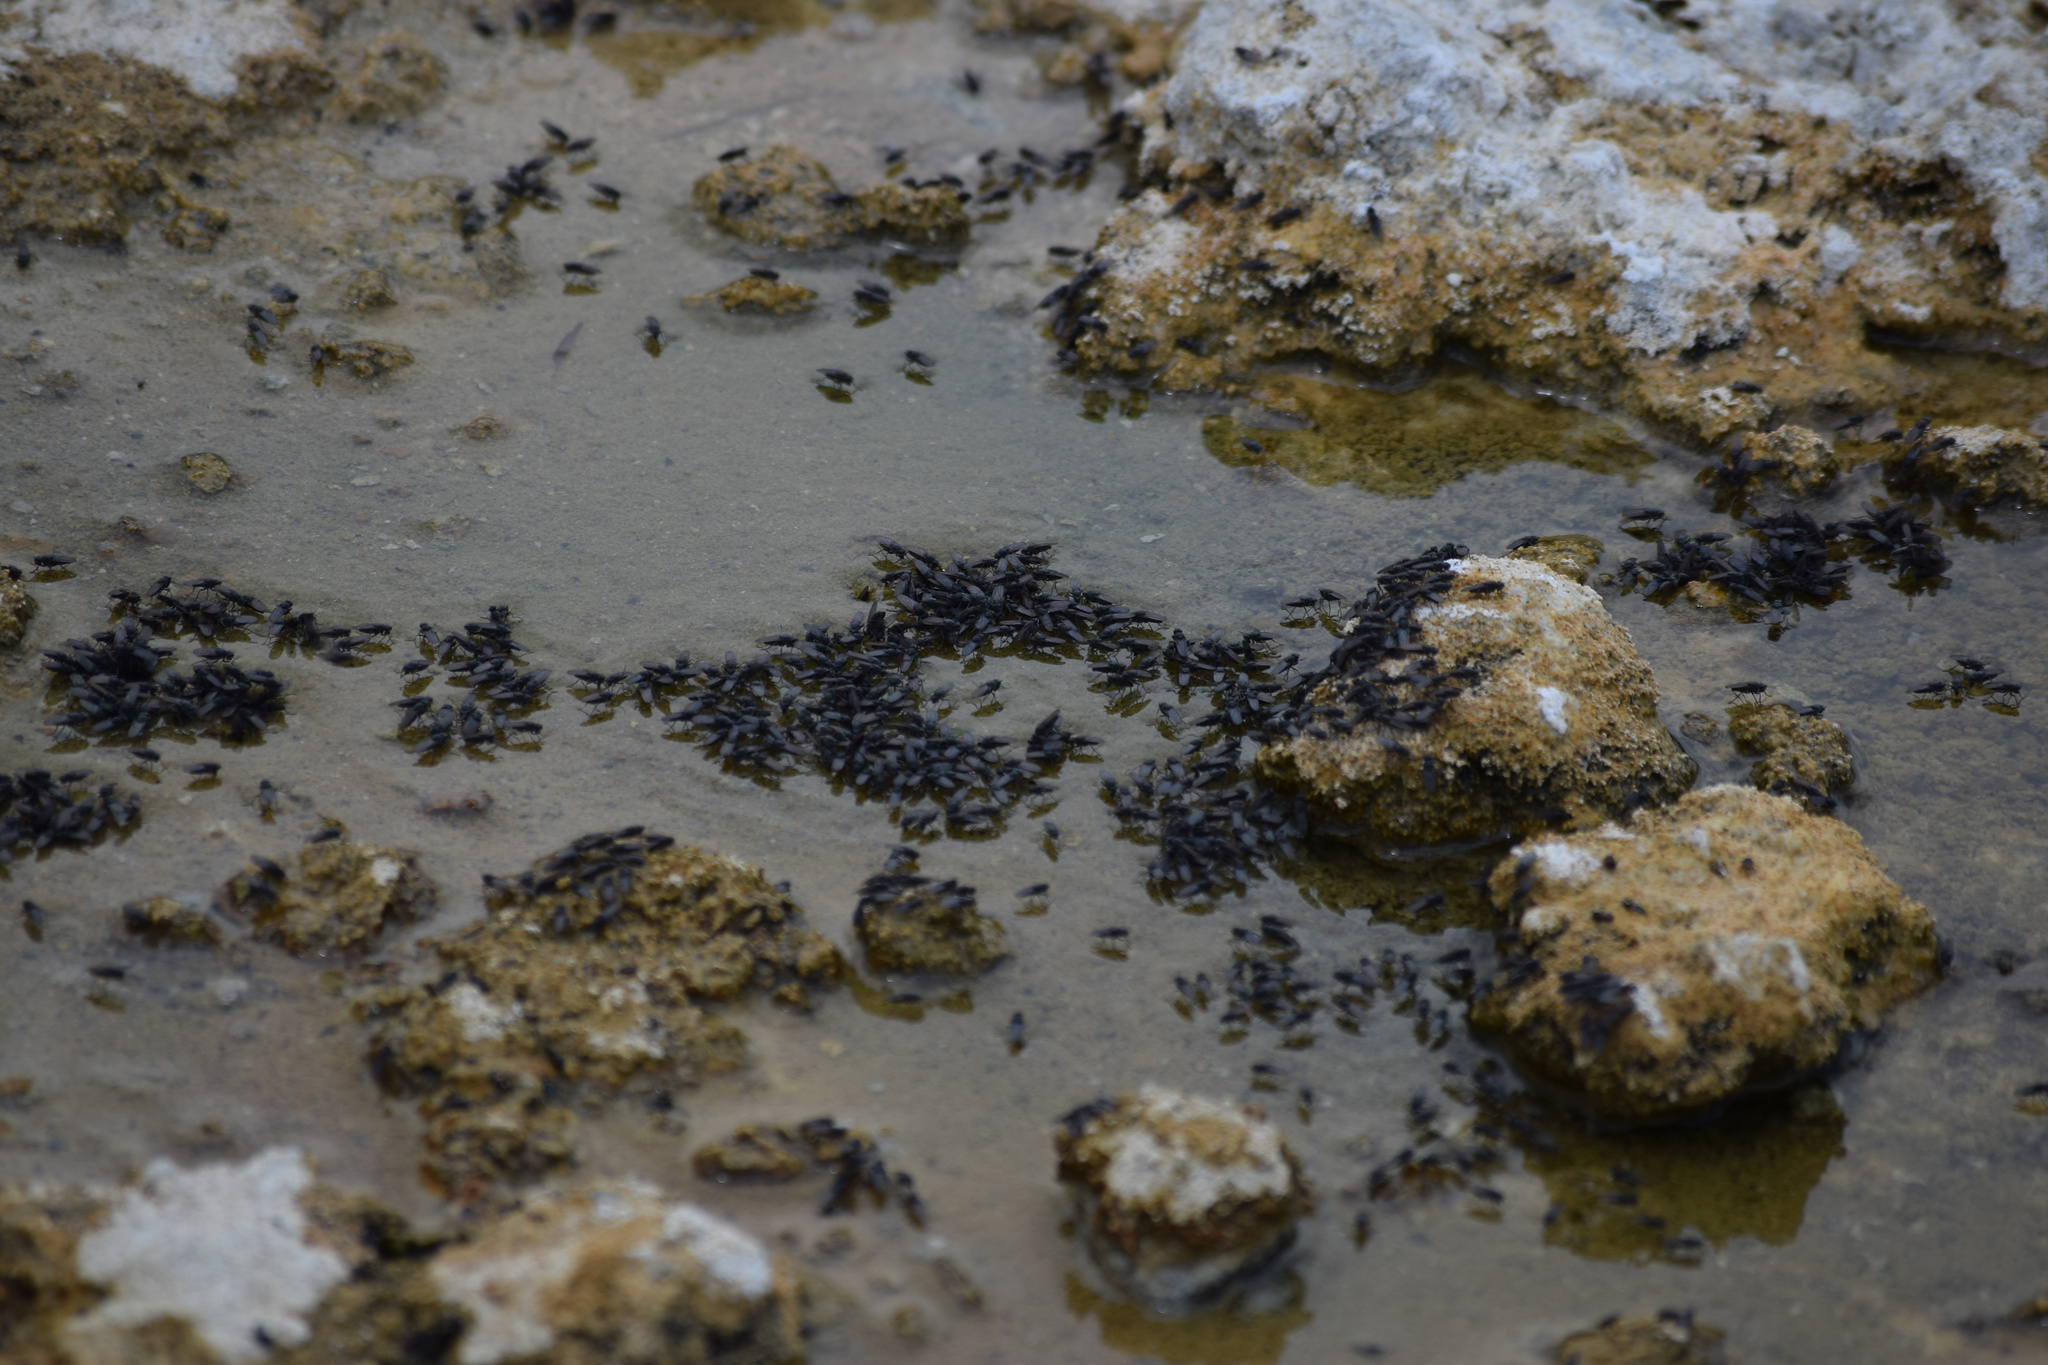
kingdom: Animalia
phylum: Arthropoda
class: Insecta
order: Diptera
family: Ephydridae
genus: Cirrula
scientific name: Cirrula hians
